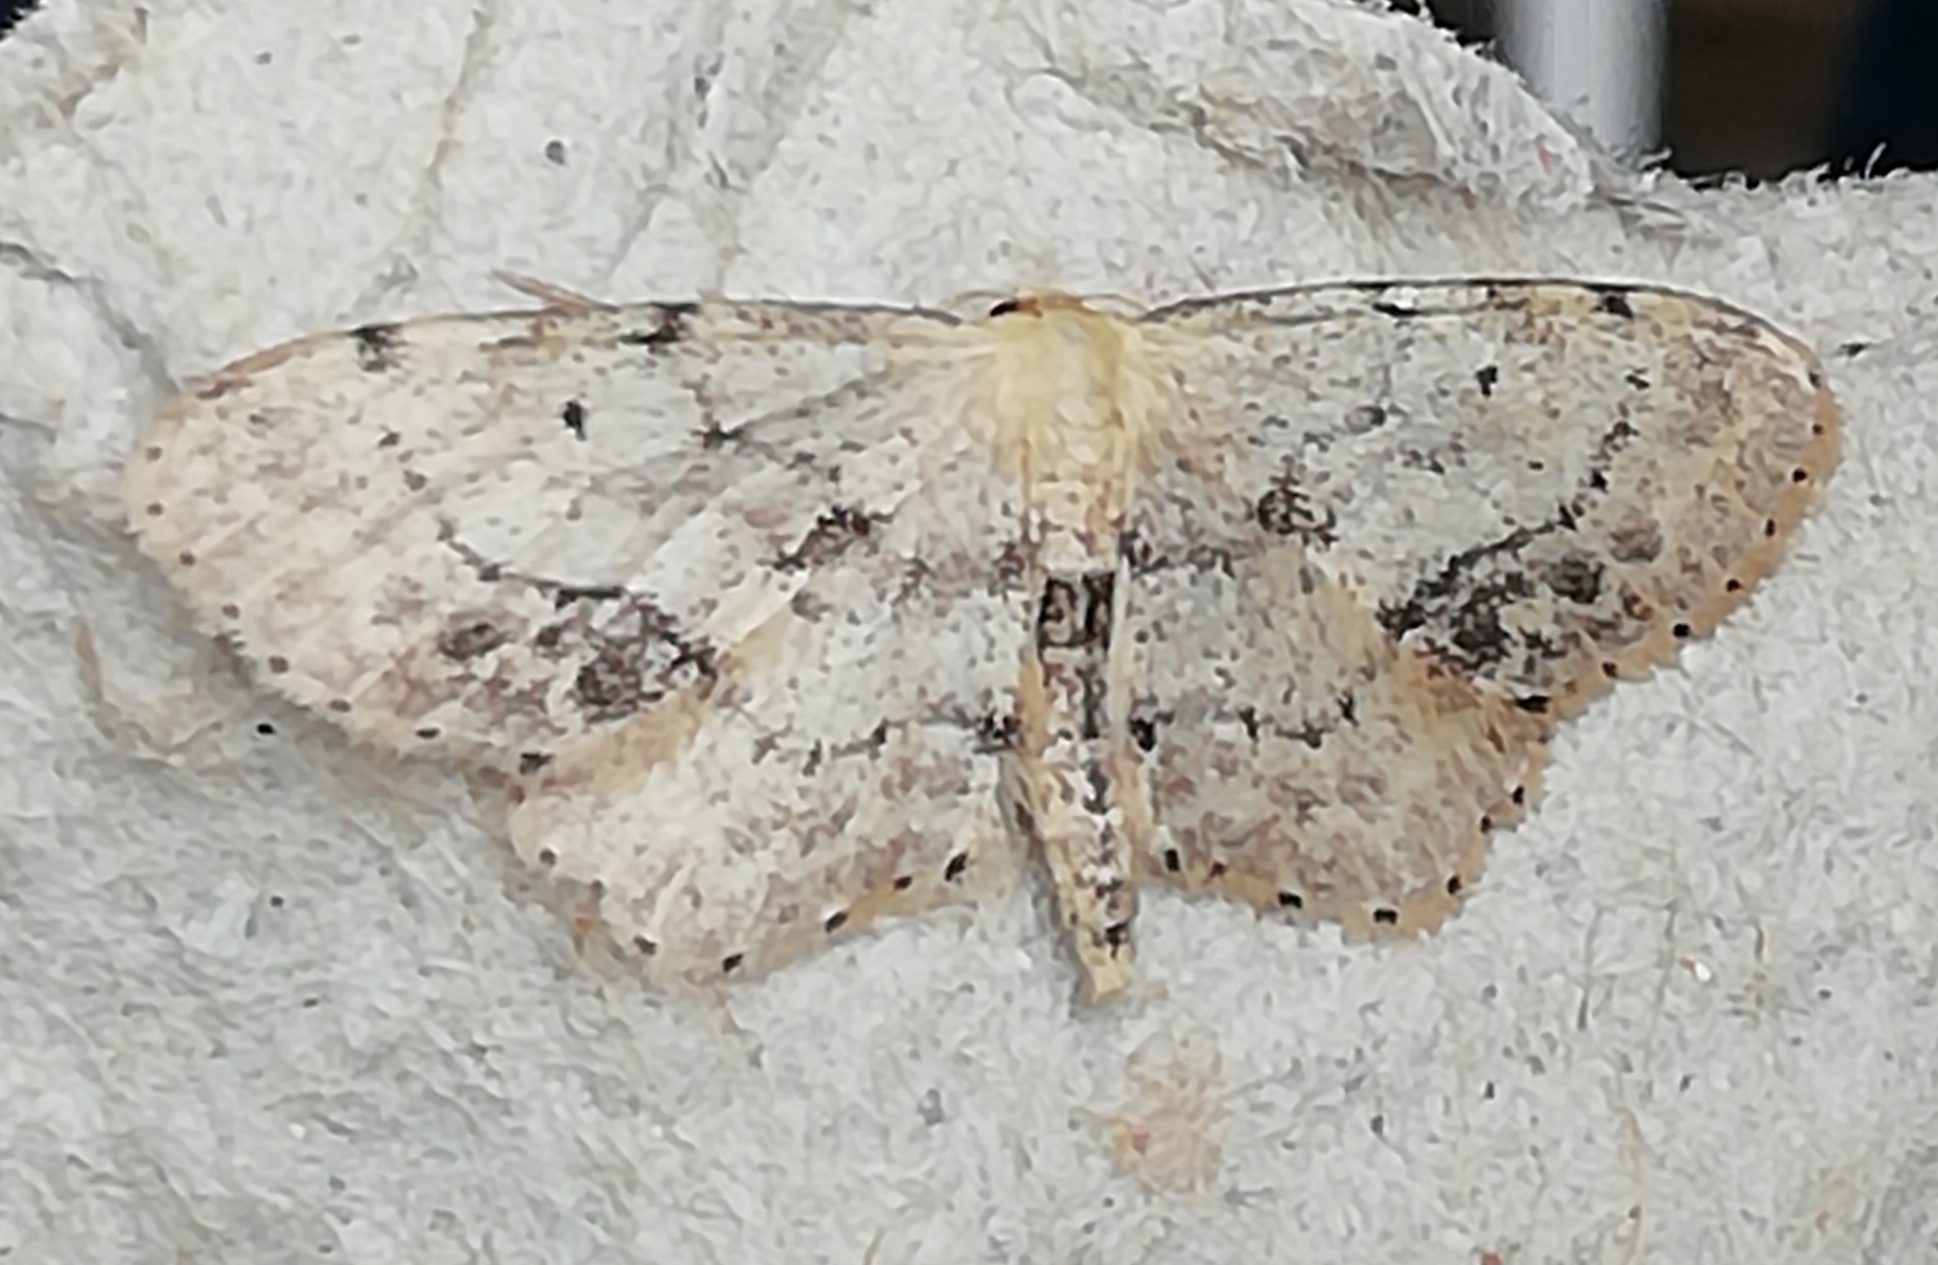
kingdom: Animalia
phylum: Arthropoda
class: Insecta
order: Lepidoptera
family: Geometridae
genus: Idaea
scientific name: Idaea dimidiata
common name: Single-dotted wave
